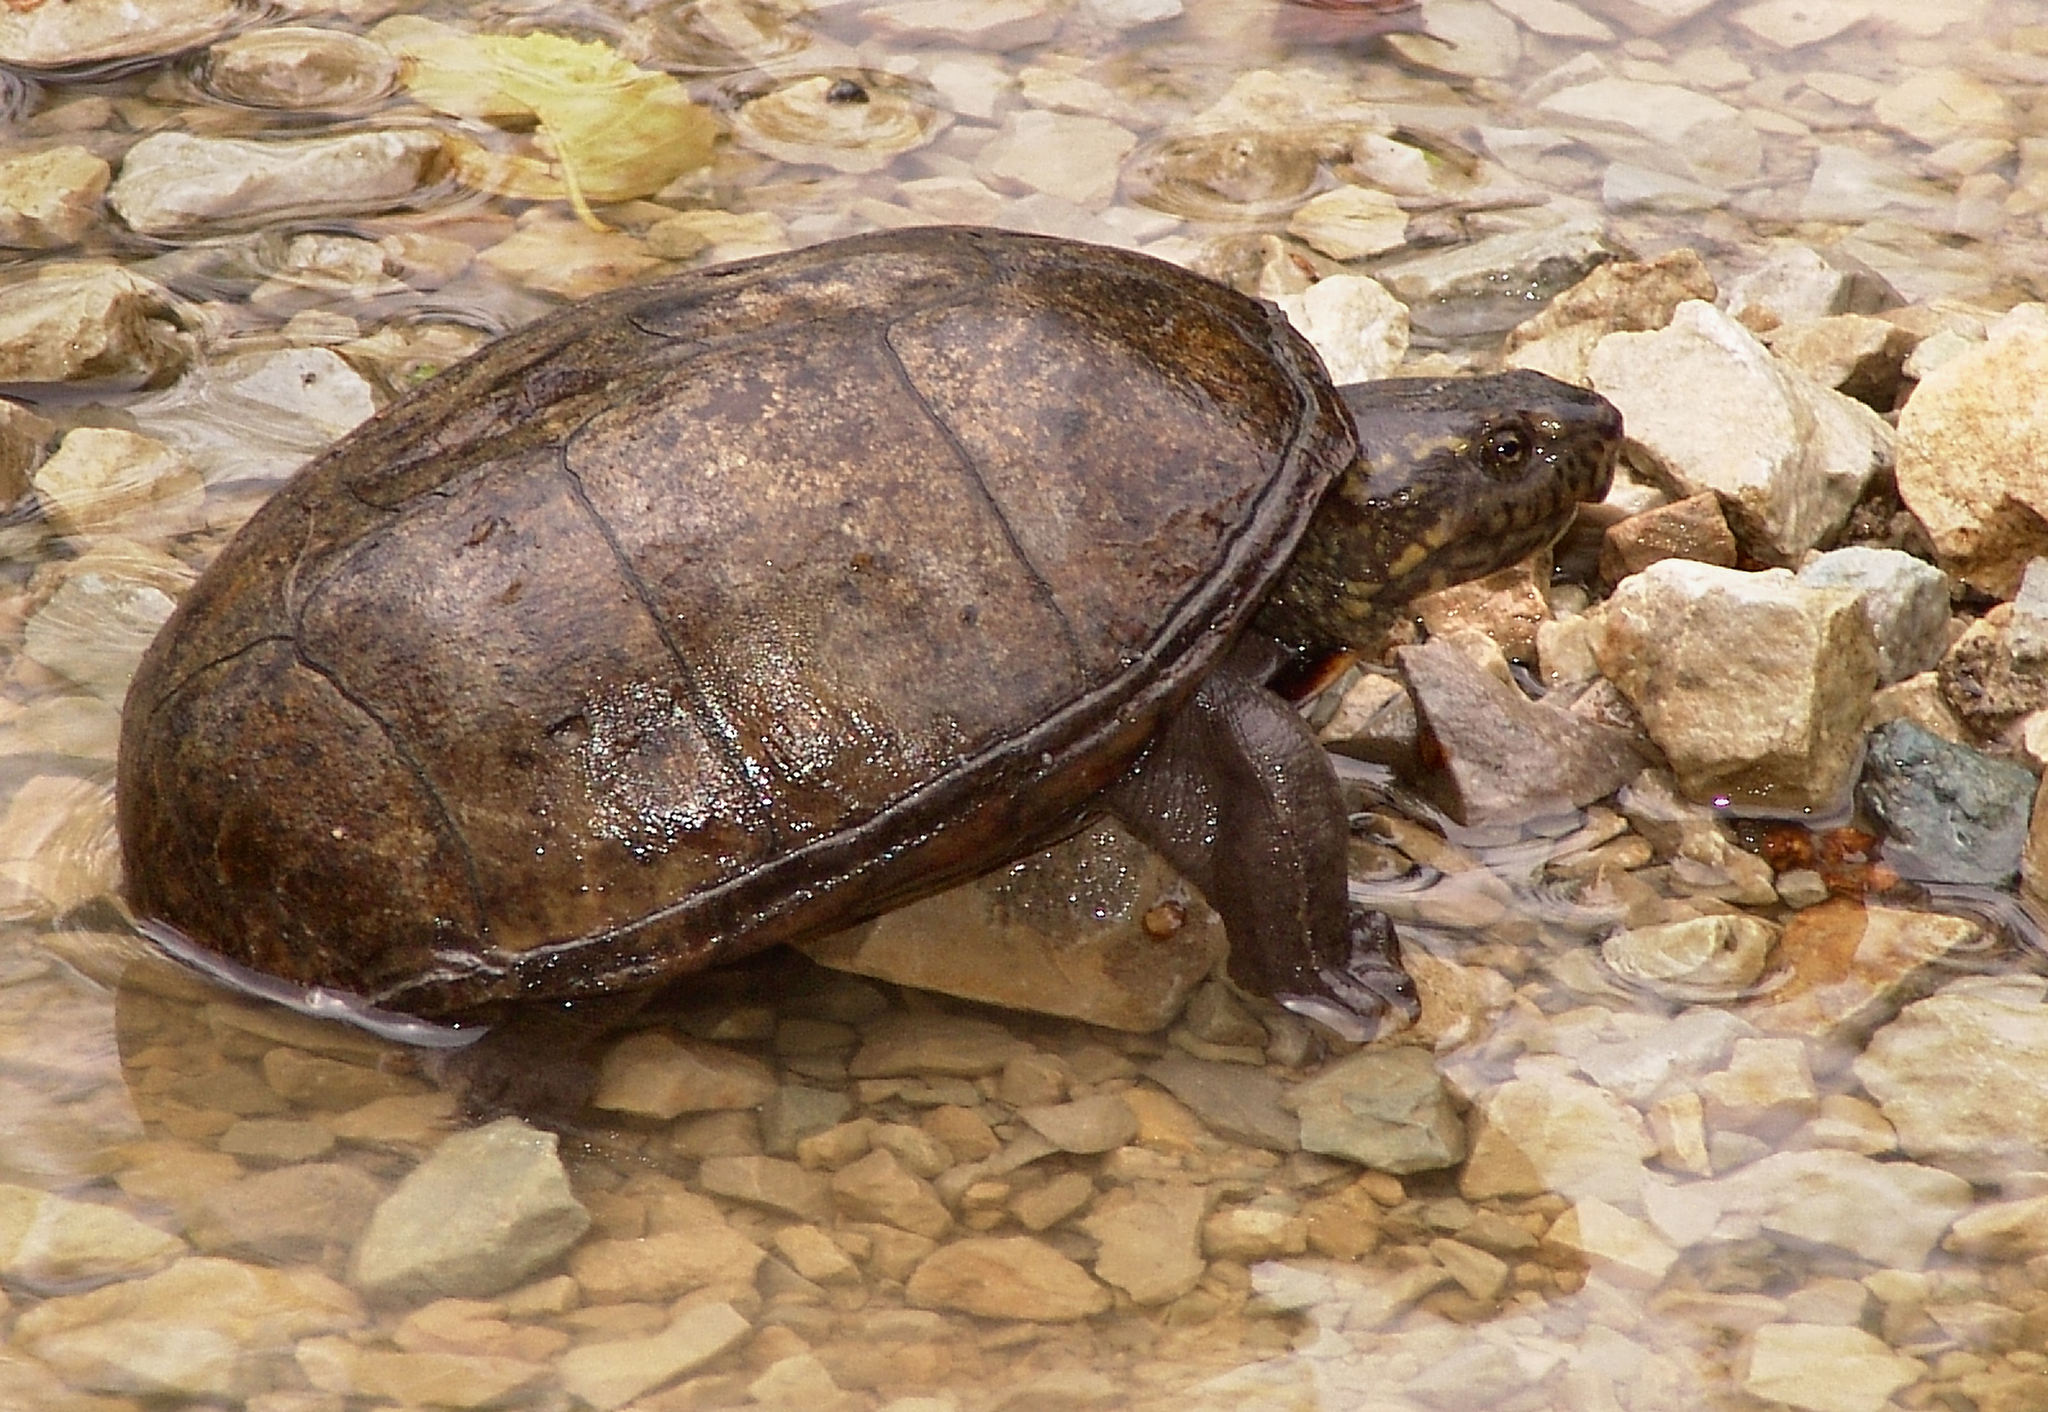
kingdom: Animalia
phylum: Chordata
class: Testudines
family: Kinosternidae
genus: Kinosternon
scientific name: Kinosternon subrubrum
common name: Eastern mud turtle
